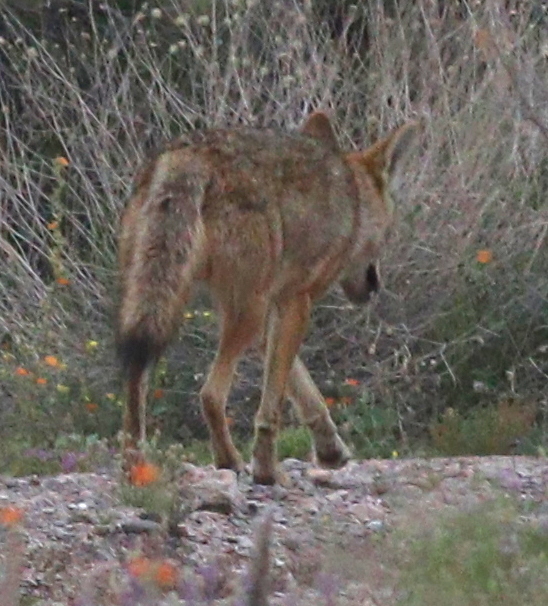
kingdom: Animalia
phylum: Chordata
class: Mammalia
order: Carnivora
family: Canidae
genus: Canis
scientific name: Canis latrans
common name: Coyote
